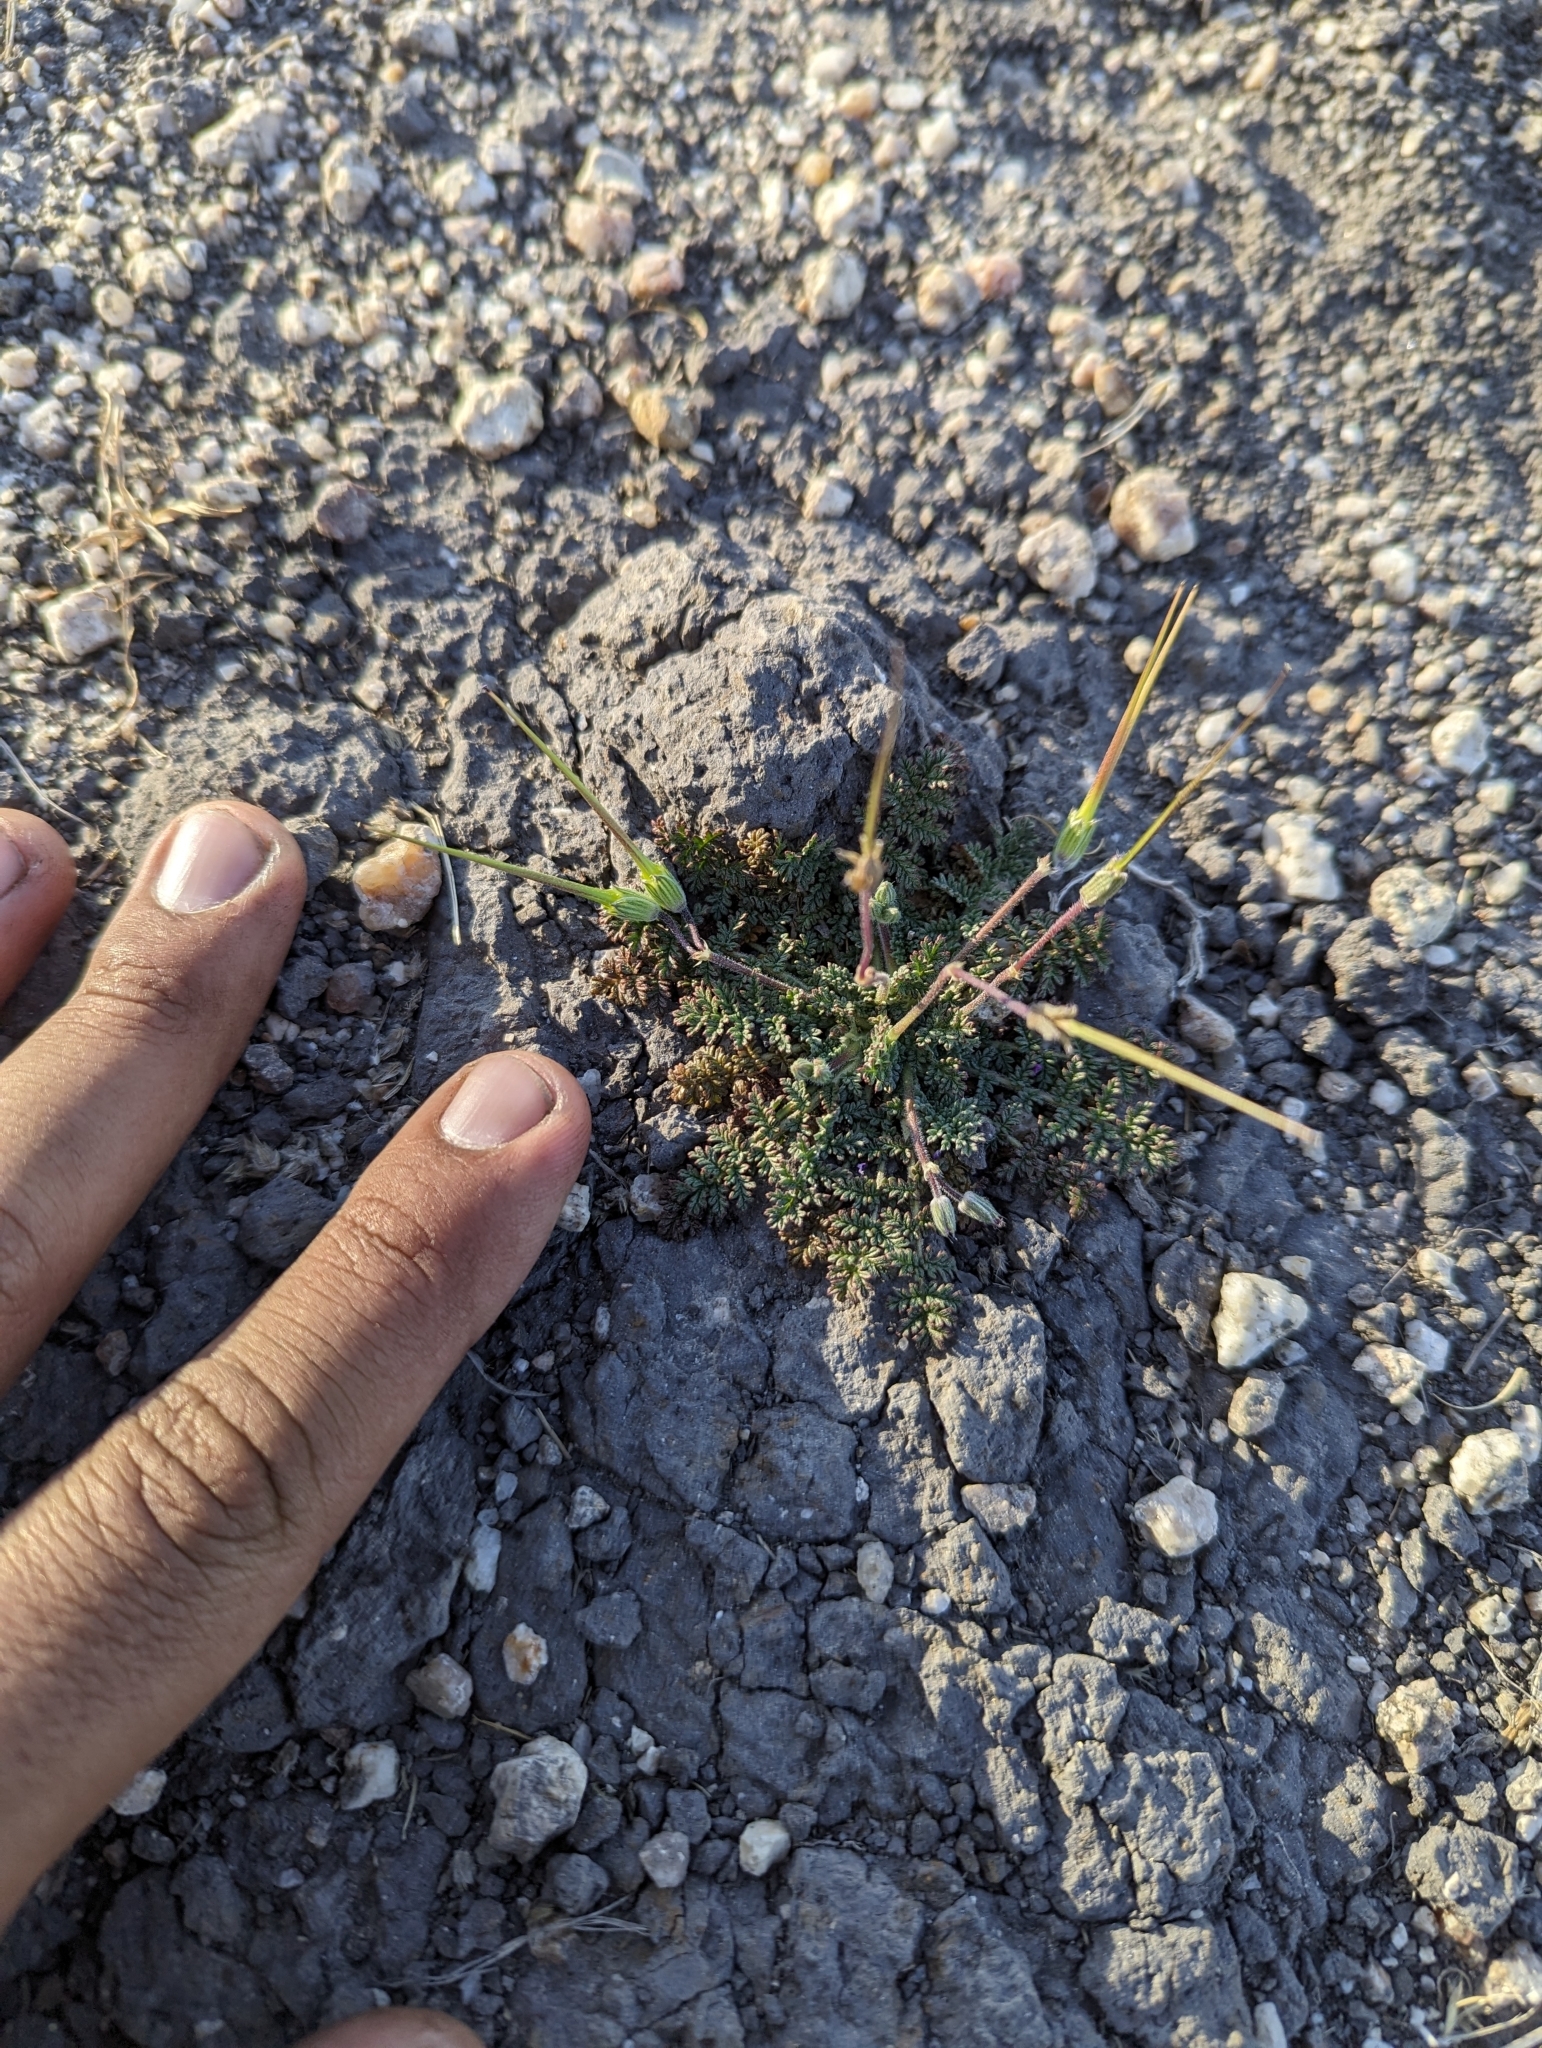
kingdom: Plantae
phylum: Tracheophyta
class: Magnoliopsida
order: Geraniales
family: Geraniaceae
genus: Erodium
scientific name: Erodium cicutarium
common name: Common stork's-bill
